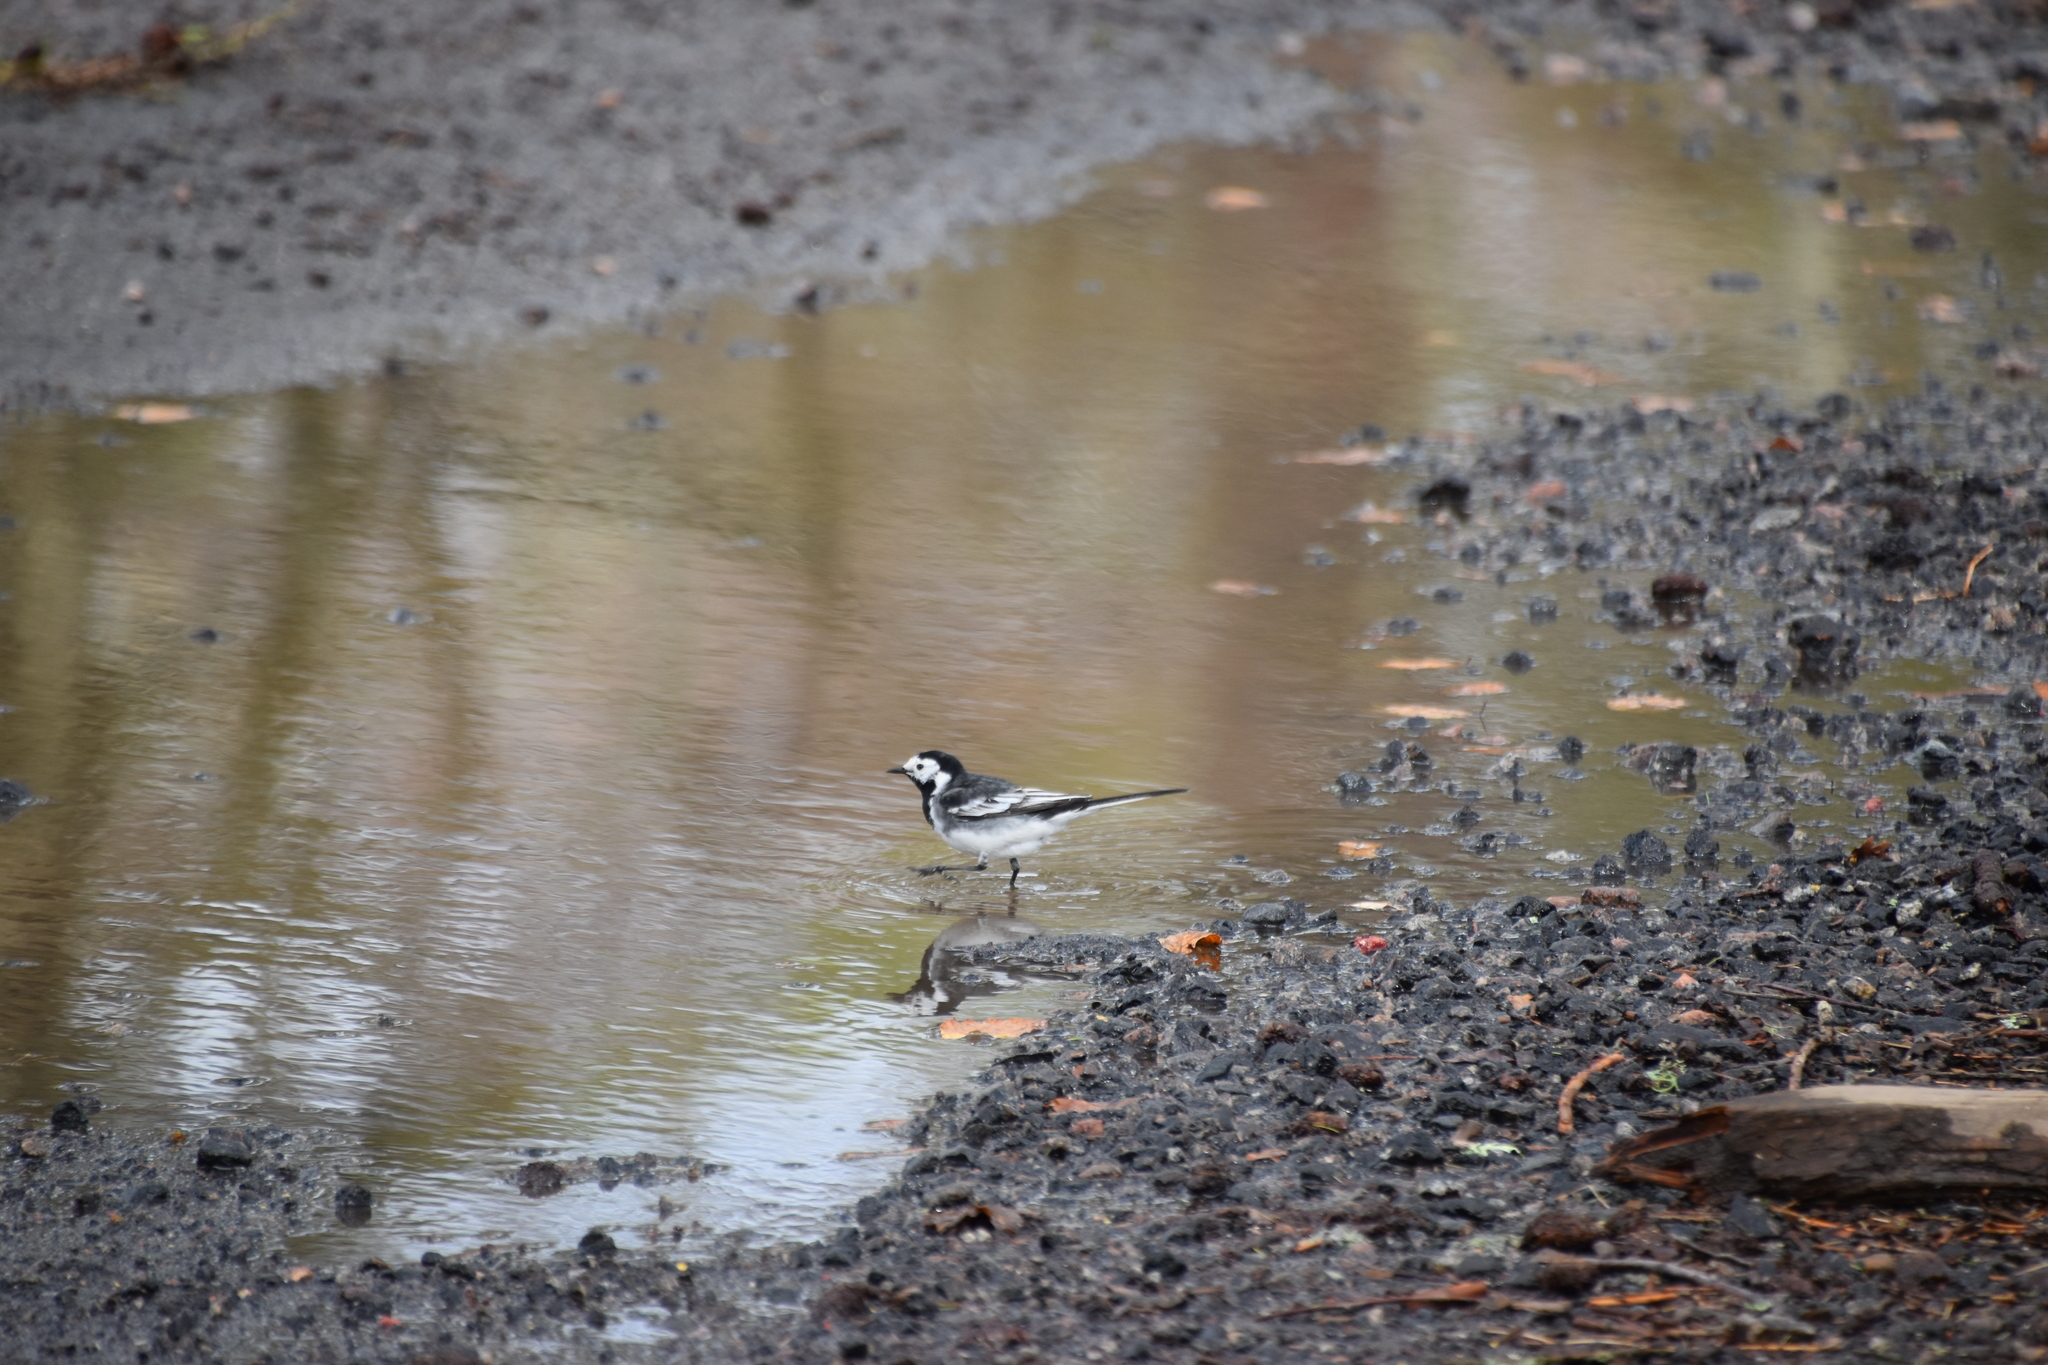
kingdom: Animalia
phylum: Chordata
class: Aves
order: Passeriformes
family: Motacillidae
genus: Motacilla
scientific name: Motacilla alba
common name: White wagtail
